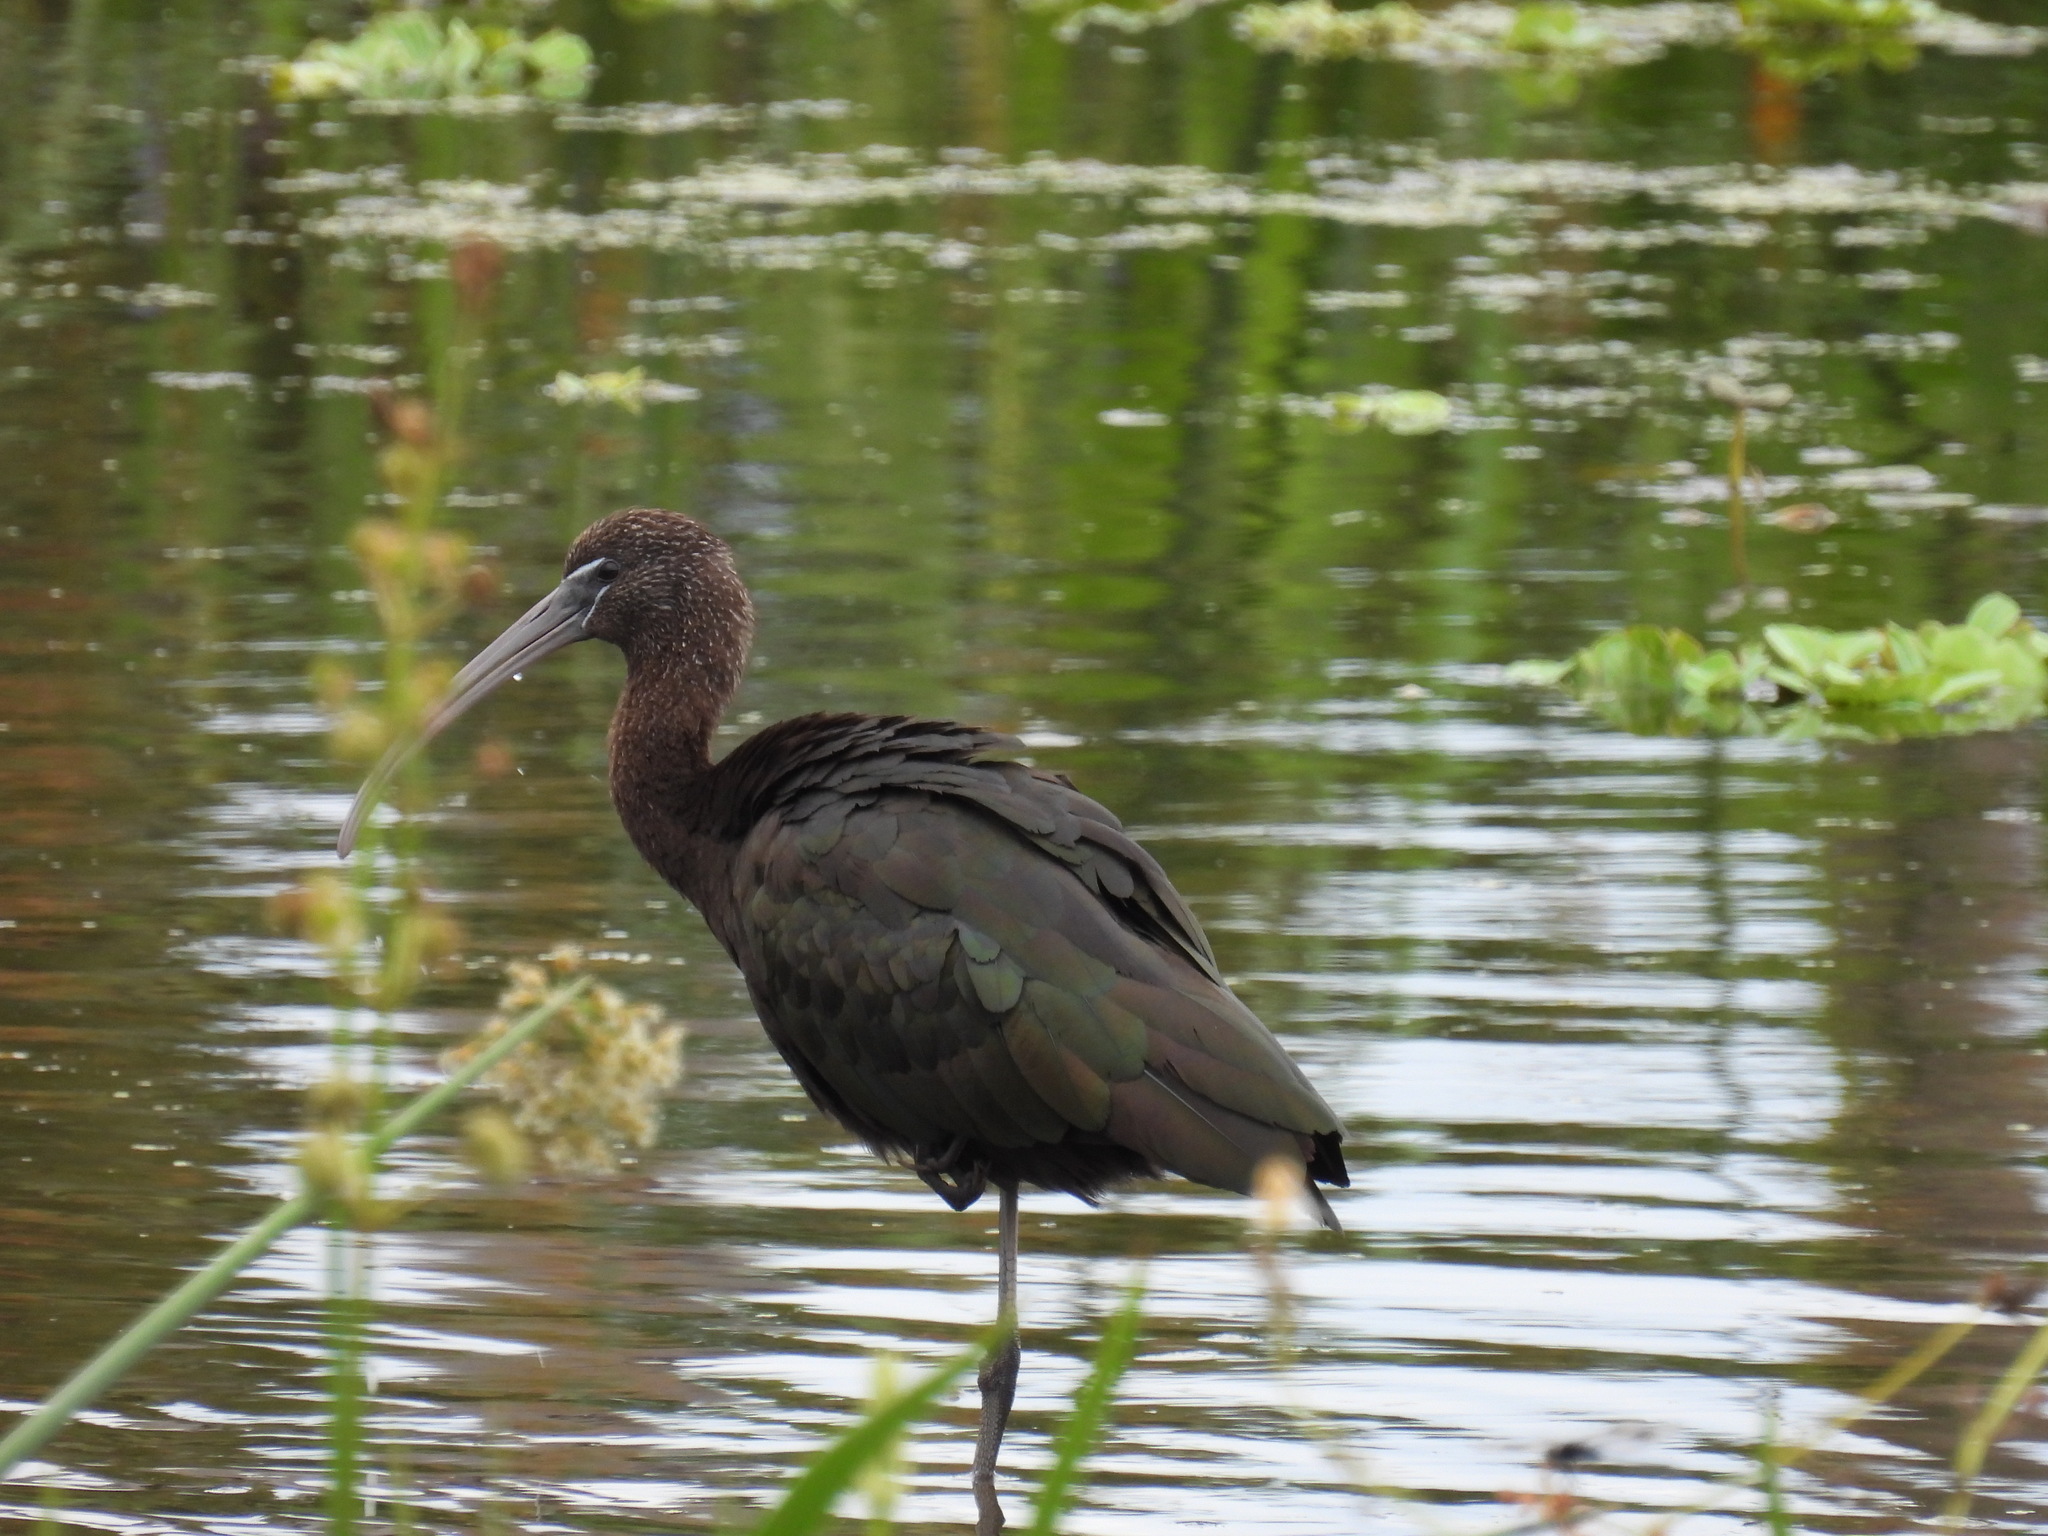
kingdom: Animalia
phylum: Chordata
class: Aves
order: Pelecaniformes
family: Threskiornithidae
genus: Plegadis
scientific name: Plegadis falcinellus
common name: Glossy ibis
